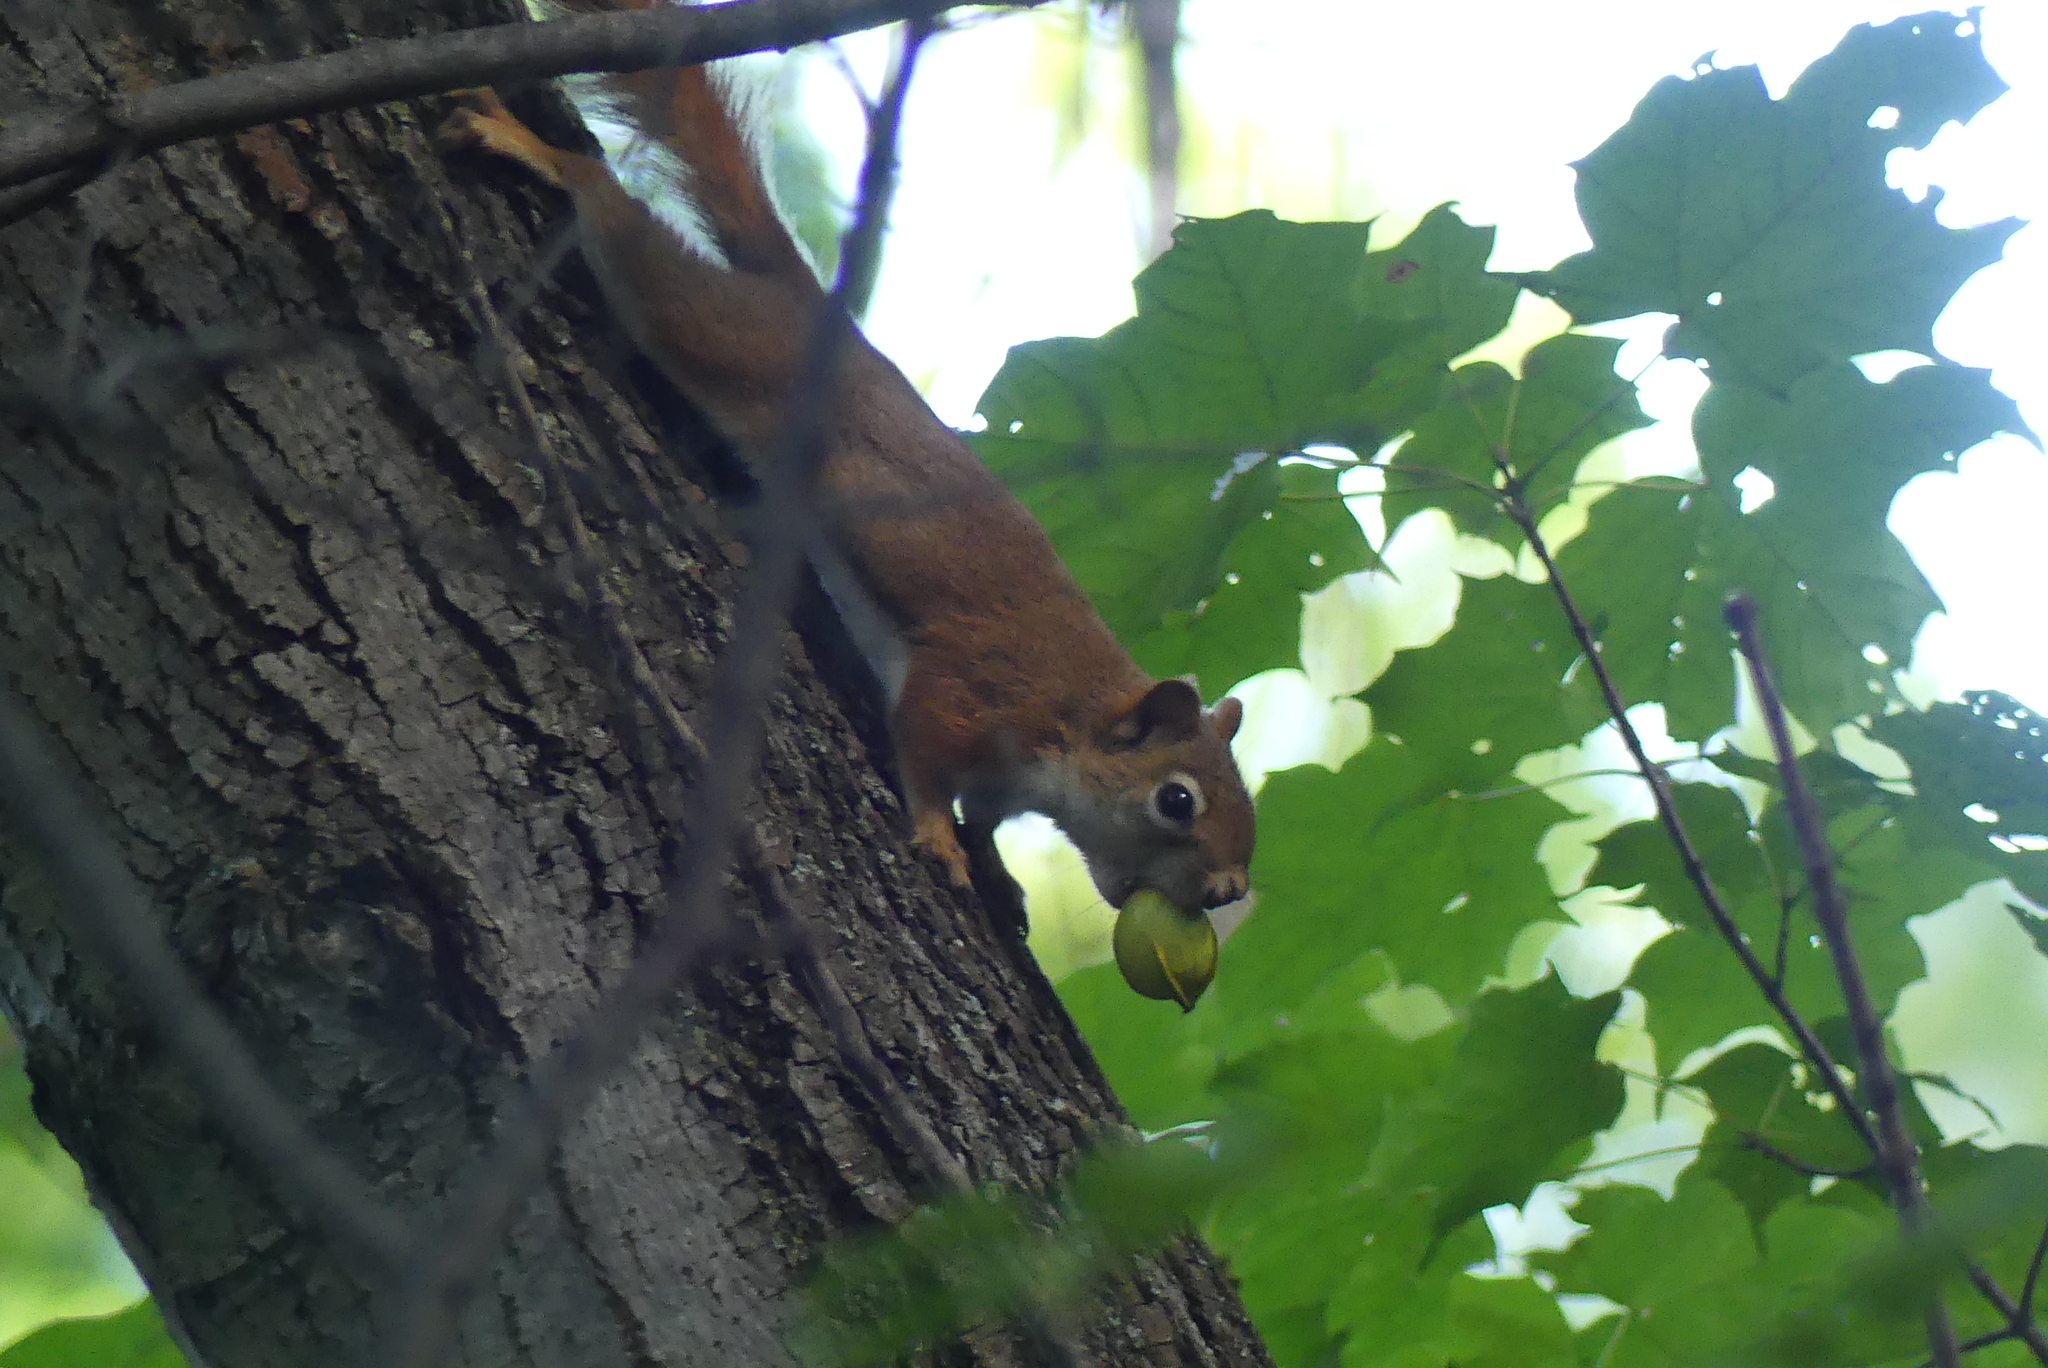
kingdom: Animalia
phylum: Chordata
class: Mammalia
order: Rodentia
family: Sciuridae
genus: Tamiasciurus
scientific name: Tamiasciurus hudsonicus
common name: Red squirrel
